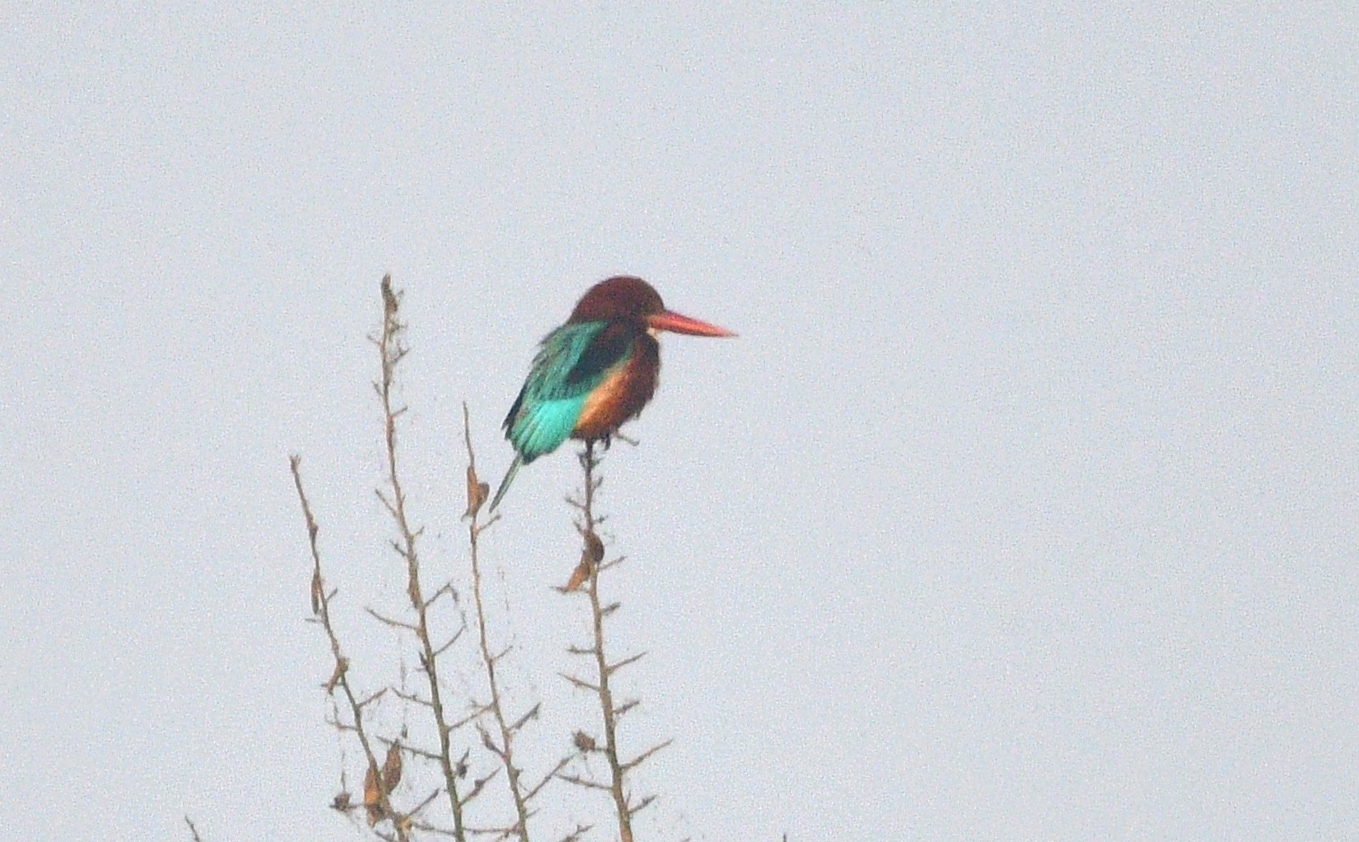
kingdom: Animalia
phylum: Chordata
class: Aves
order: Coraciiformes
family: Alcedinidae
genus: Halcyon
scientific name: Halcyon smyrnensis
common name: White-throated kingfisher
